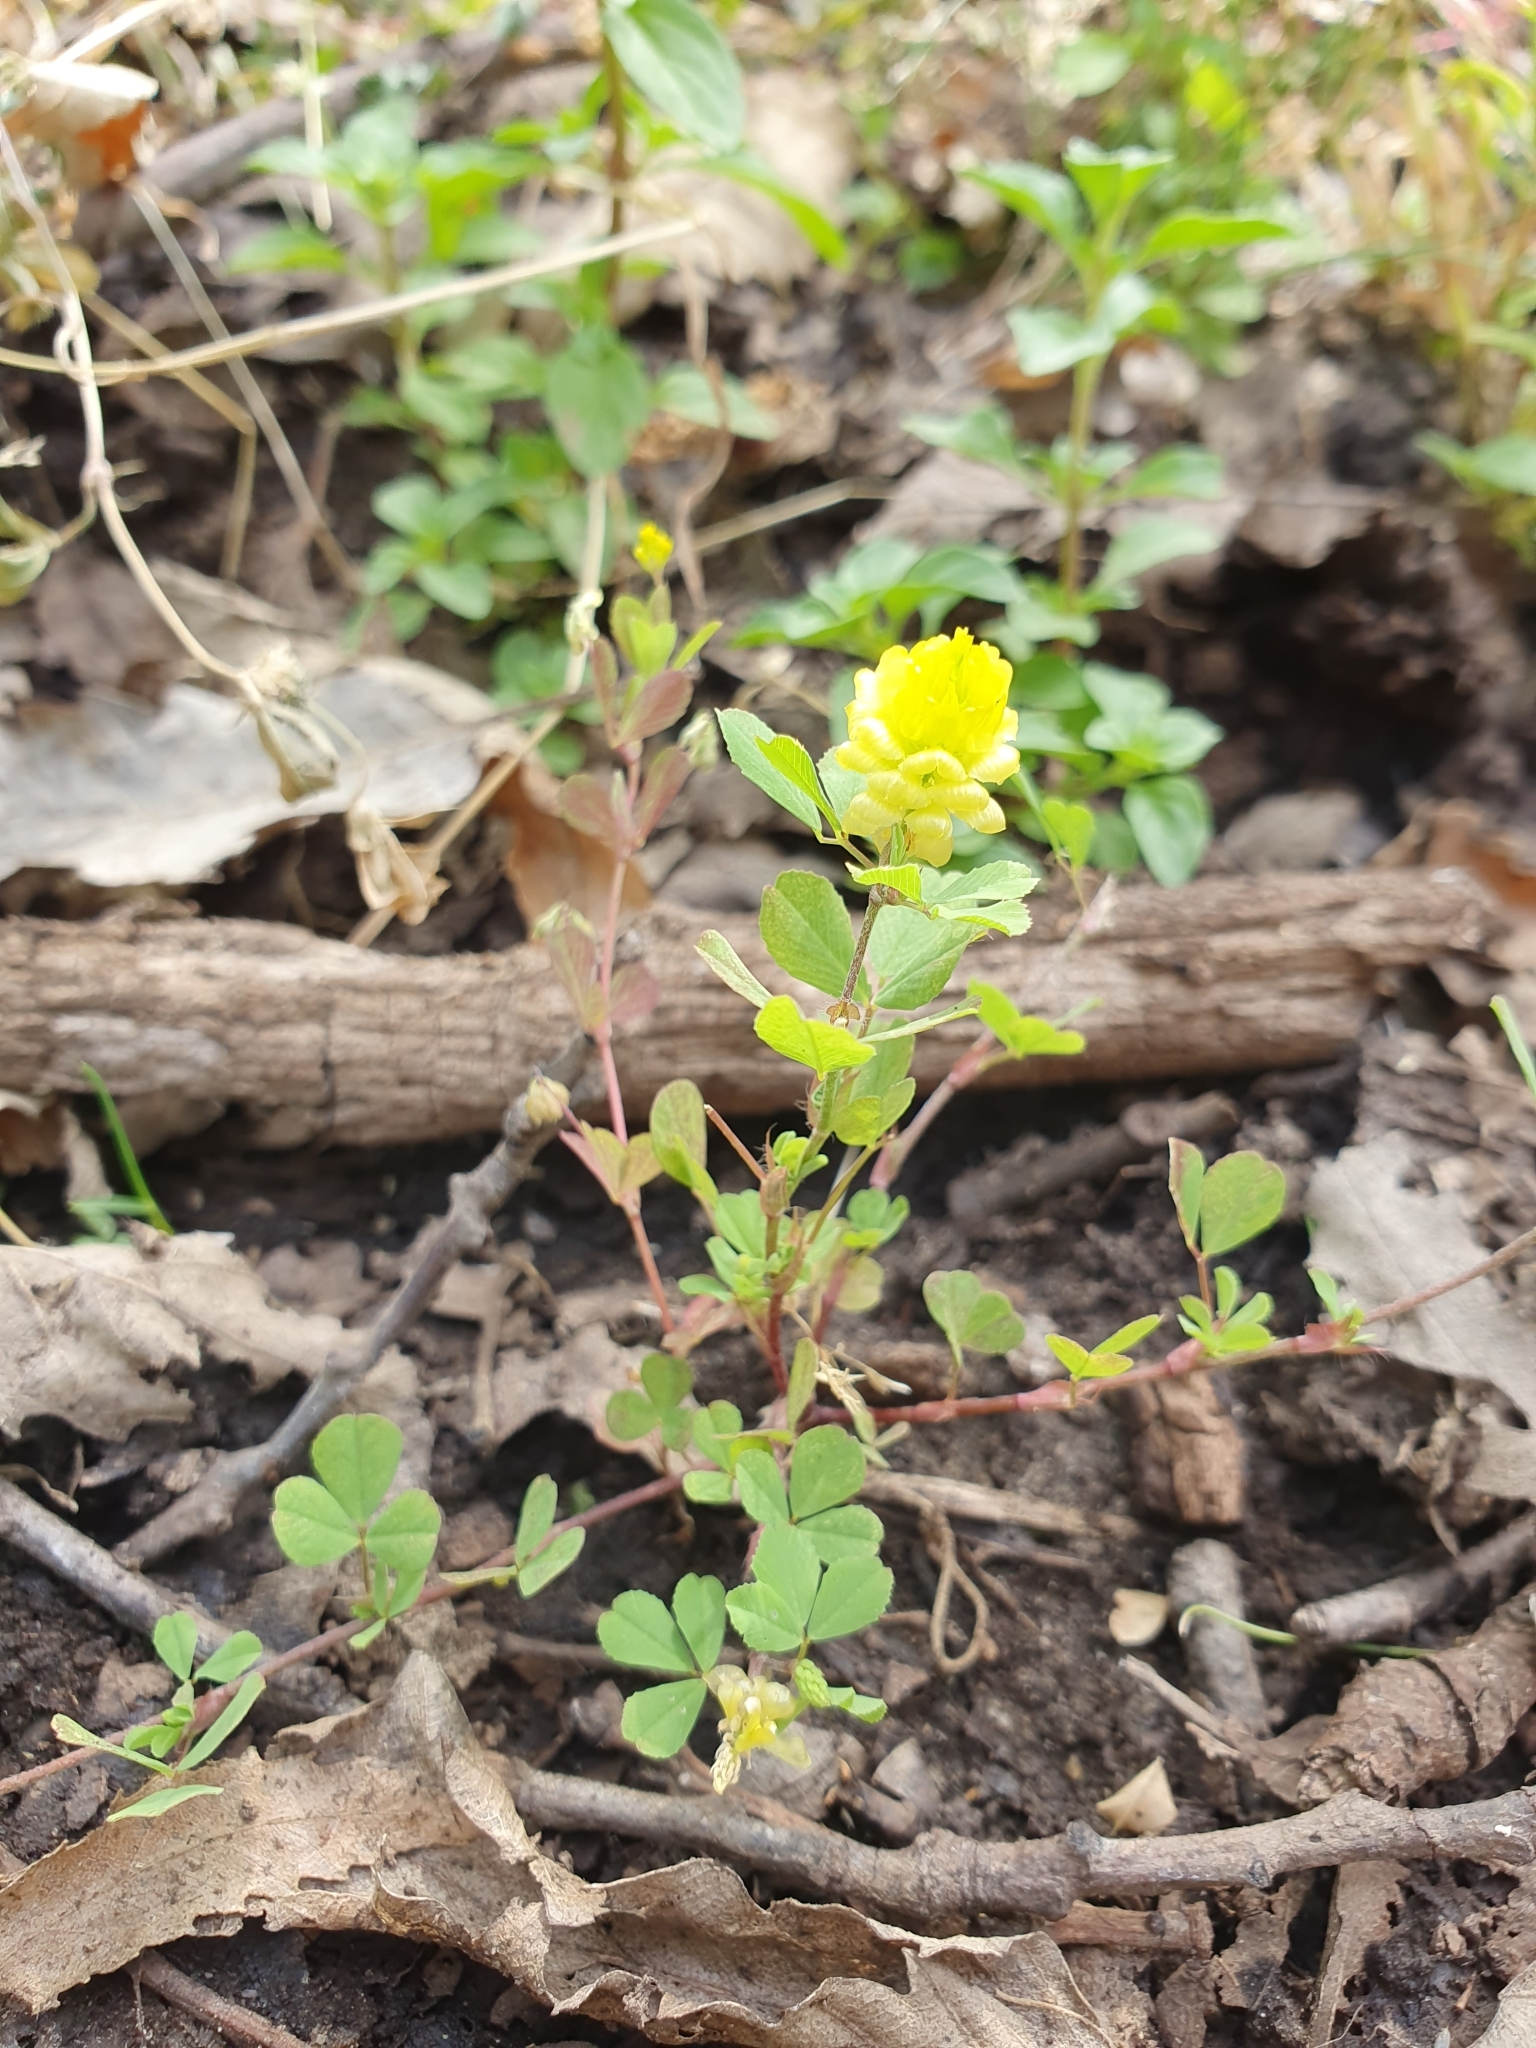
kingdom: Plantae
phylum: Tracheophyta
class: Magnoliopsida
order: Fabales
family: Fabaceae
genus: Trifolium
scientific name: Trifolium campestre
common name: Field clover
